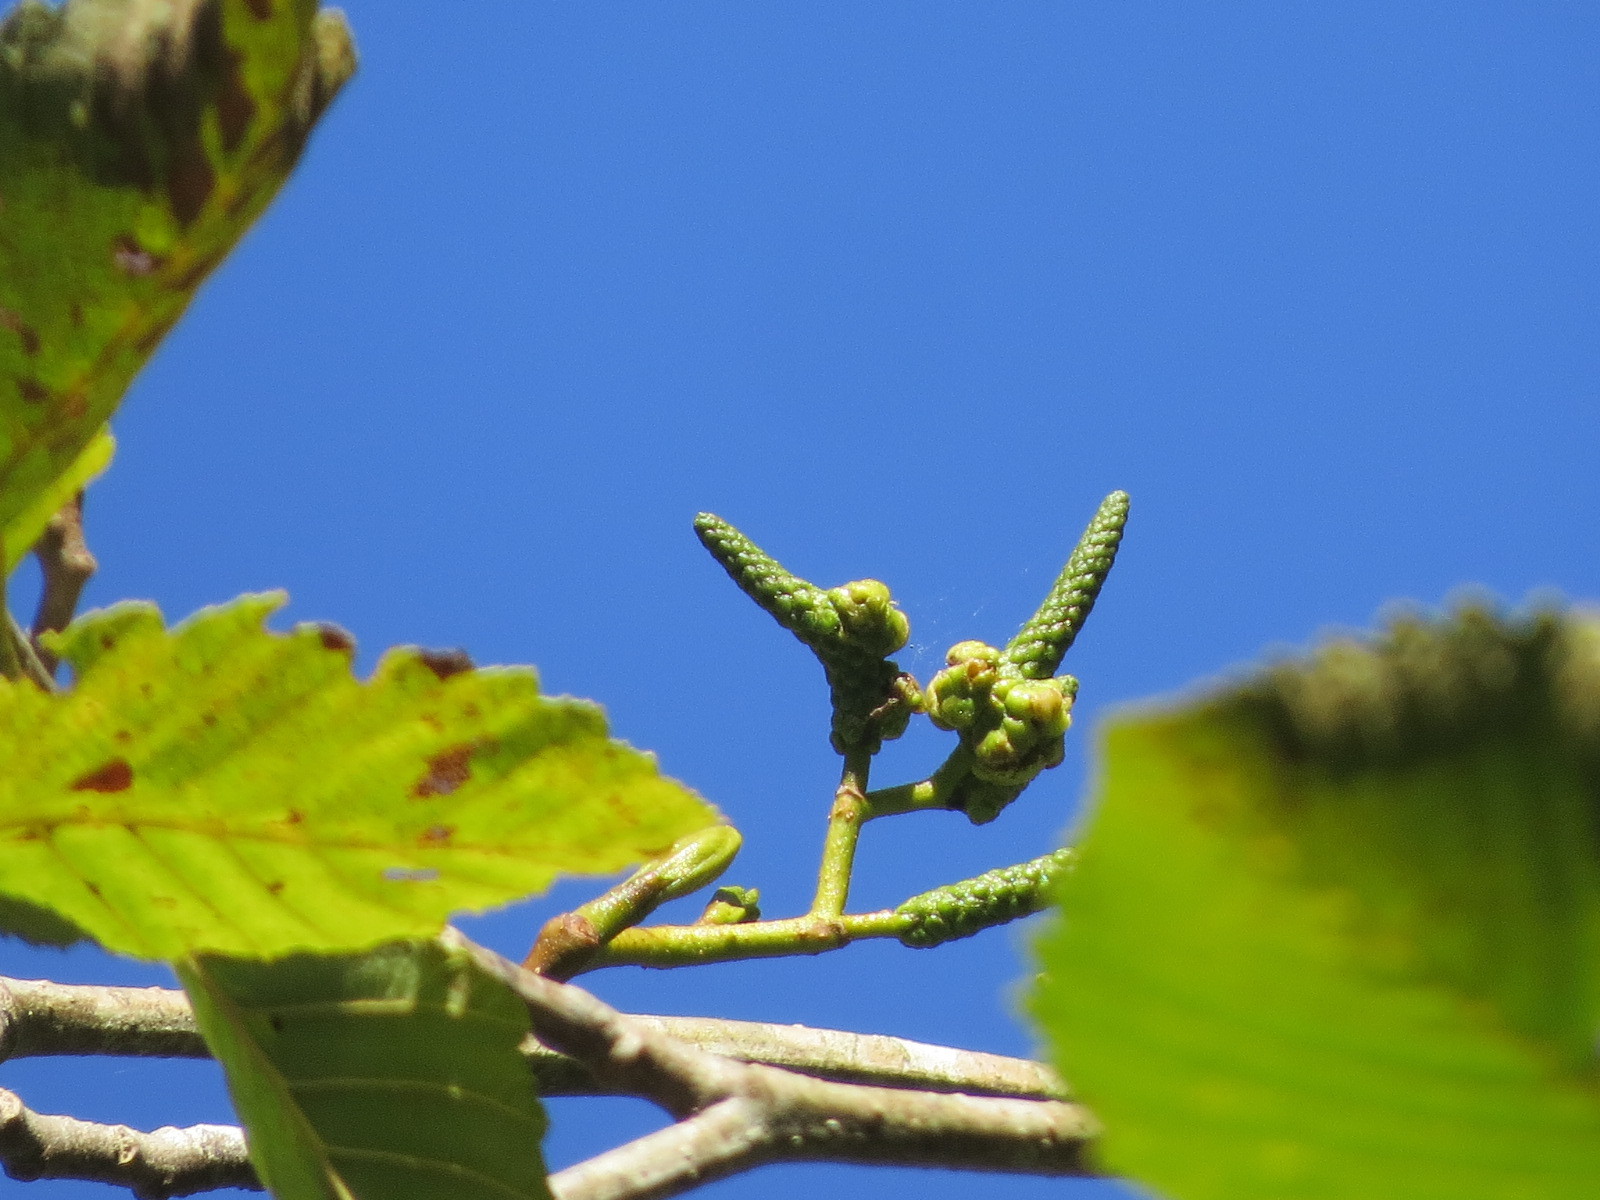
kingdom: Animalia
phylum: Arthropoda
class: Insecta
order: Diptera
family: Cecidomyiidae
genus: Dasineura
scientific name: Dasineura
